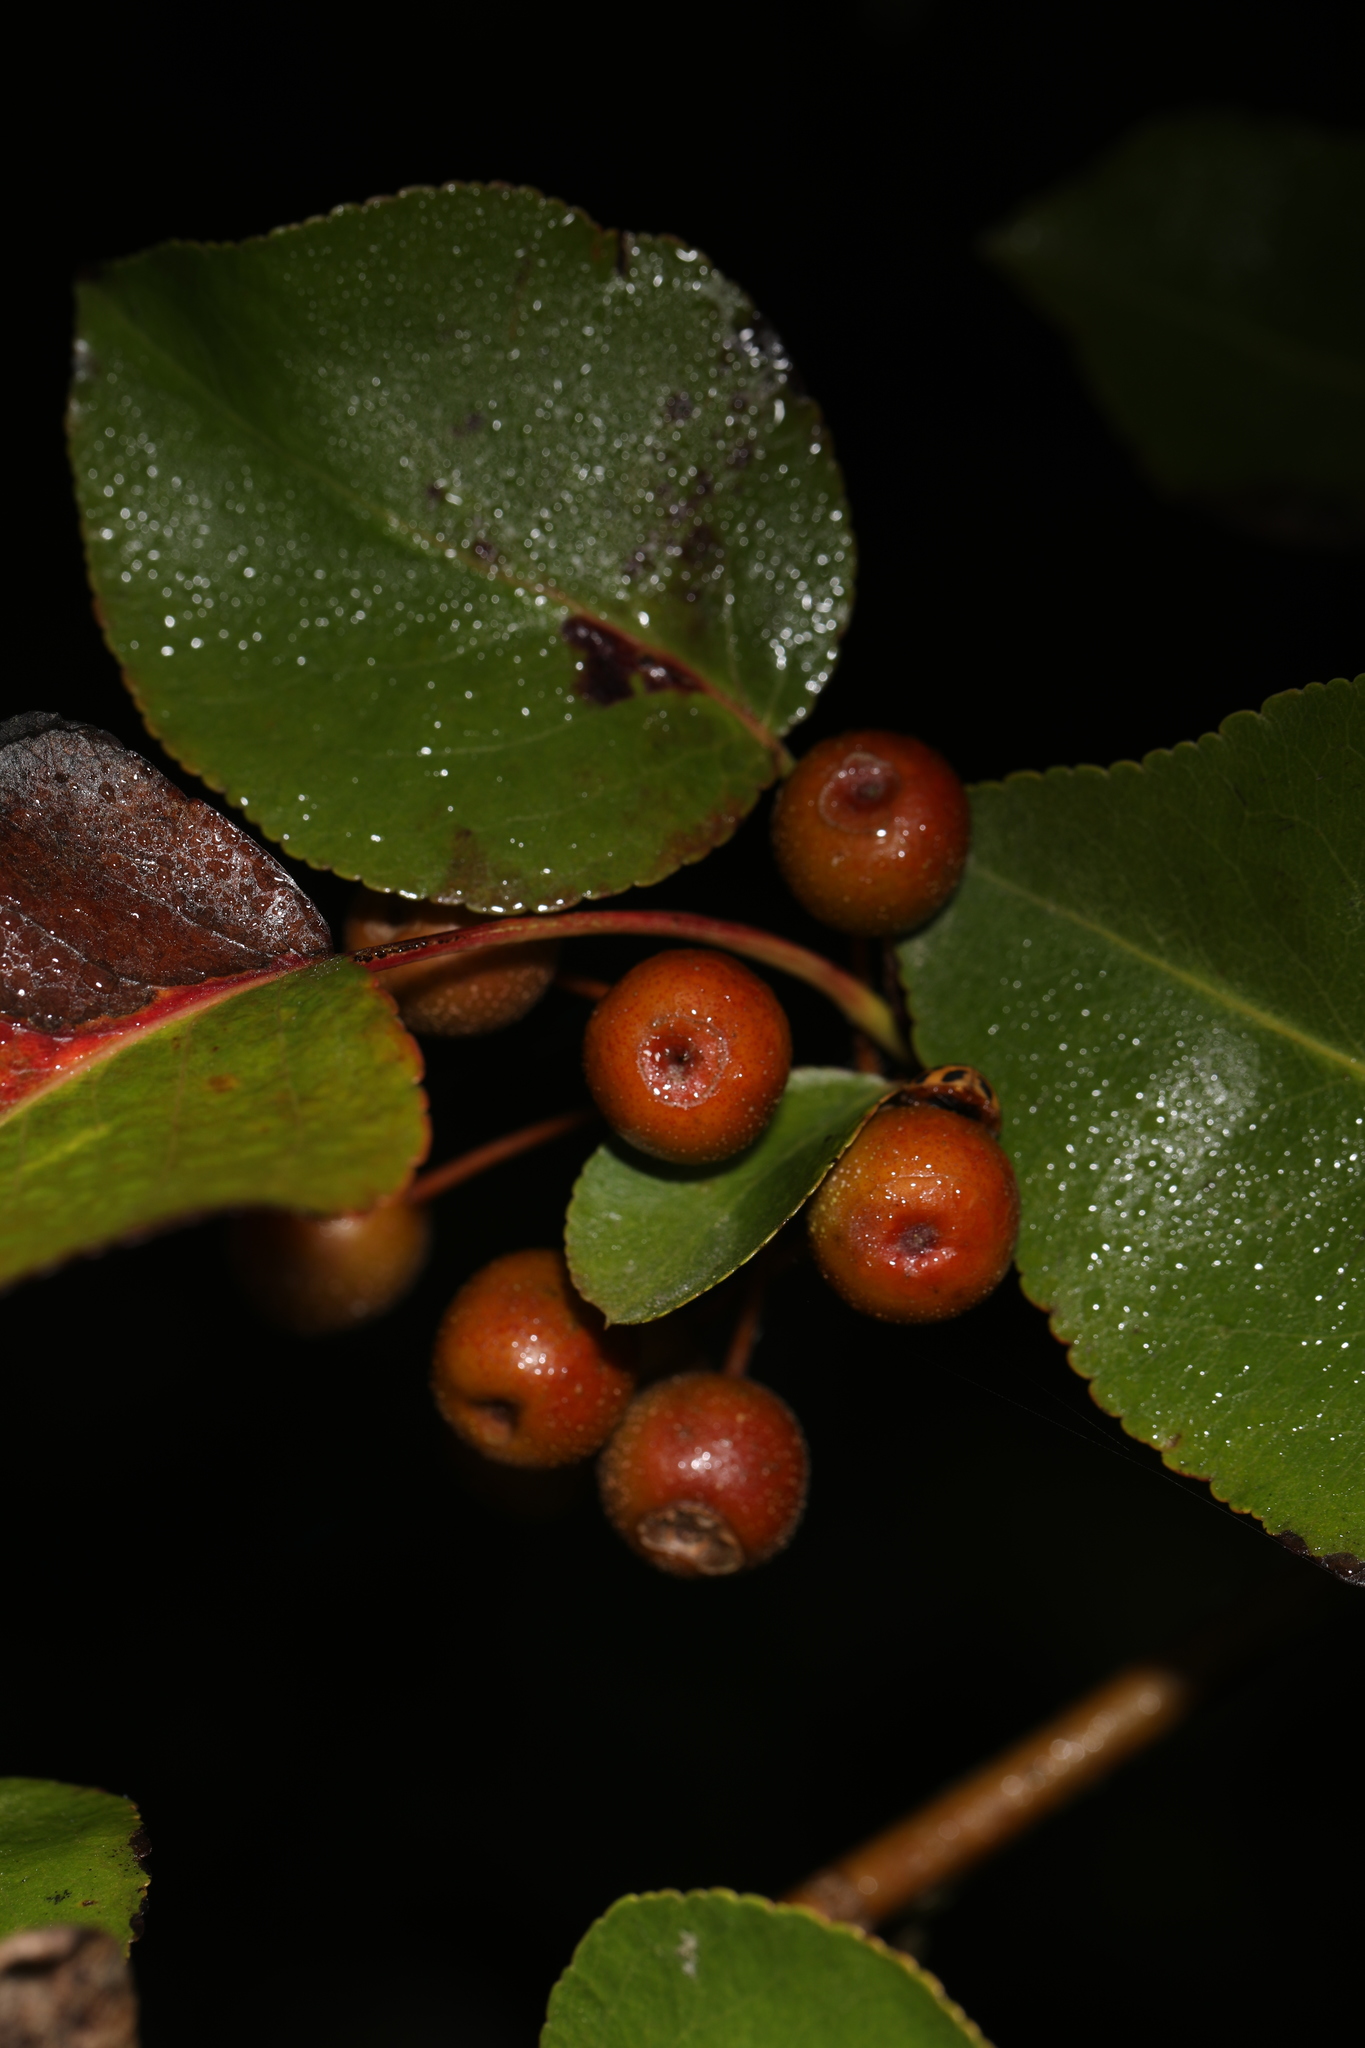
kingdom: Plantae
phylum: Tracheophyta
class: Magnoliopsida
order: Rosales
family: Rosaceae
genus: Pyrus
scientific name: Pyrus calleryana
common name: Callery pear
